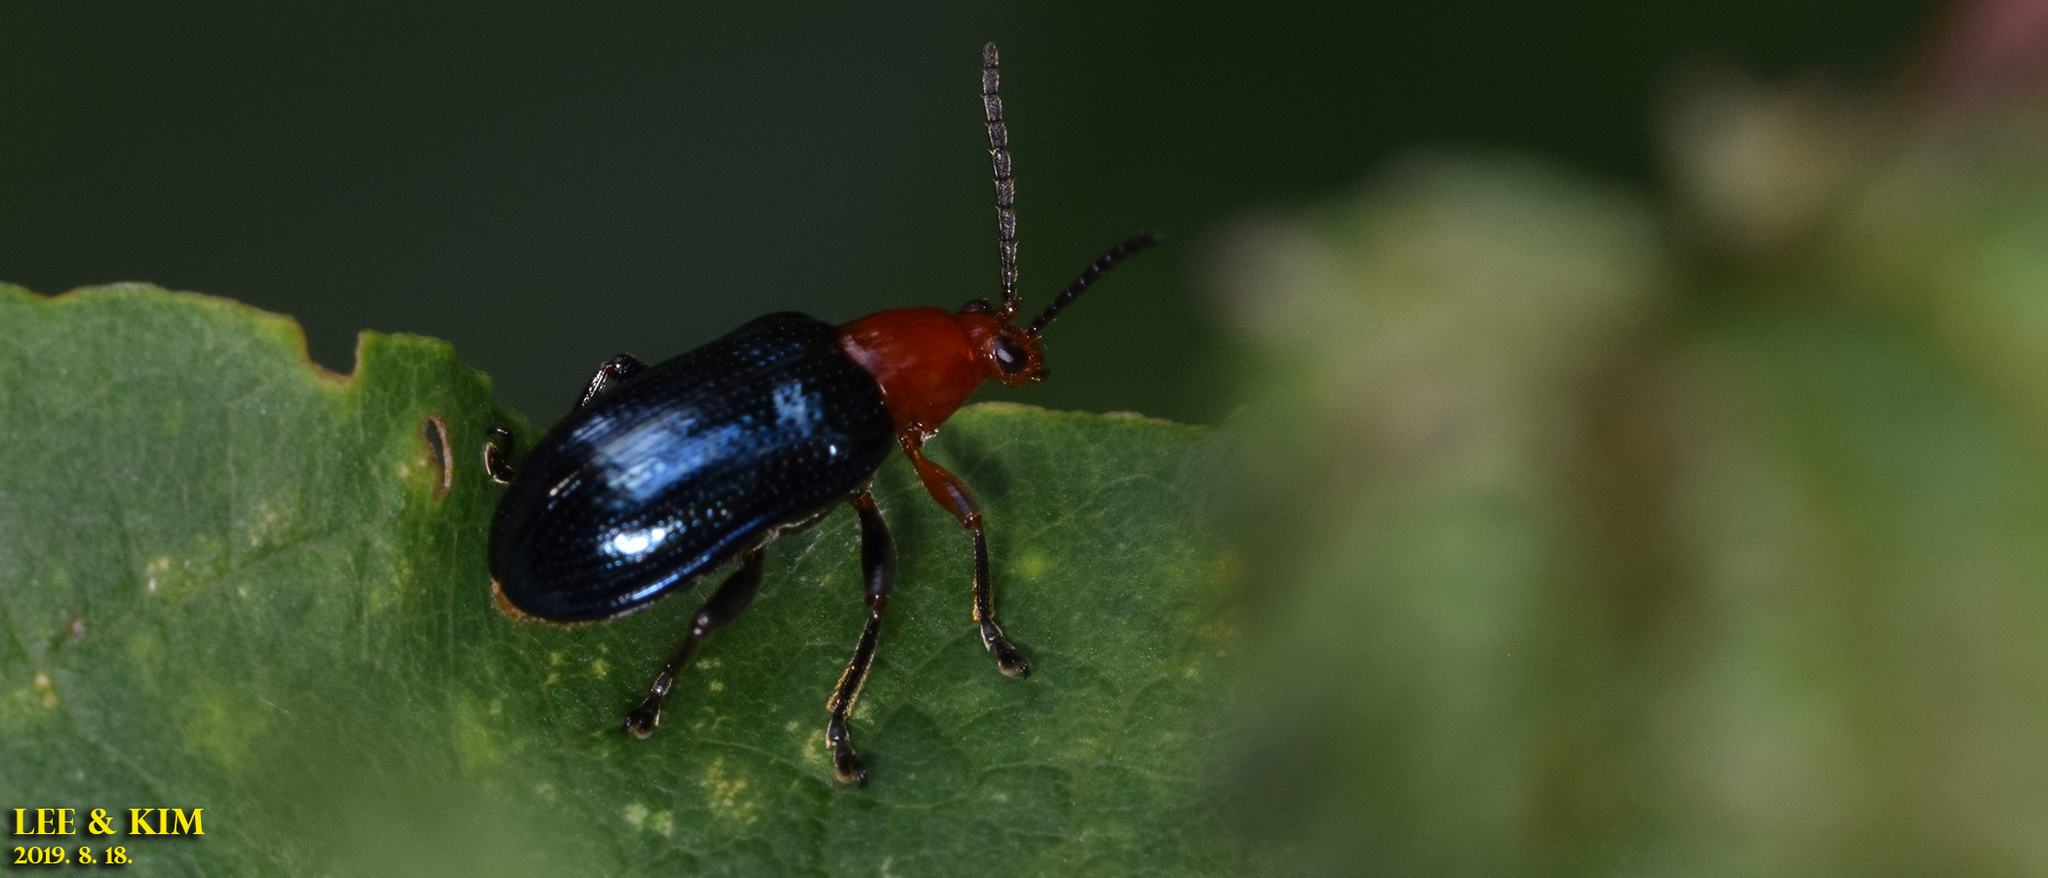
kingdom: Animalia
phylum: Arthropoda
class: Insecta
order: Coleoptera
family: Chrysomelidae
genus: Lema
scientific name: Lema fortunei
